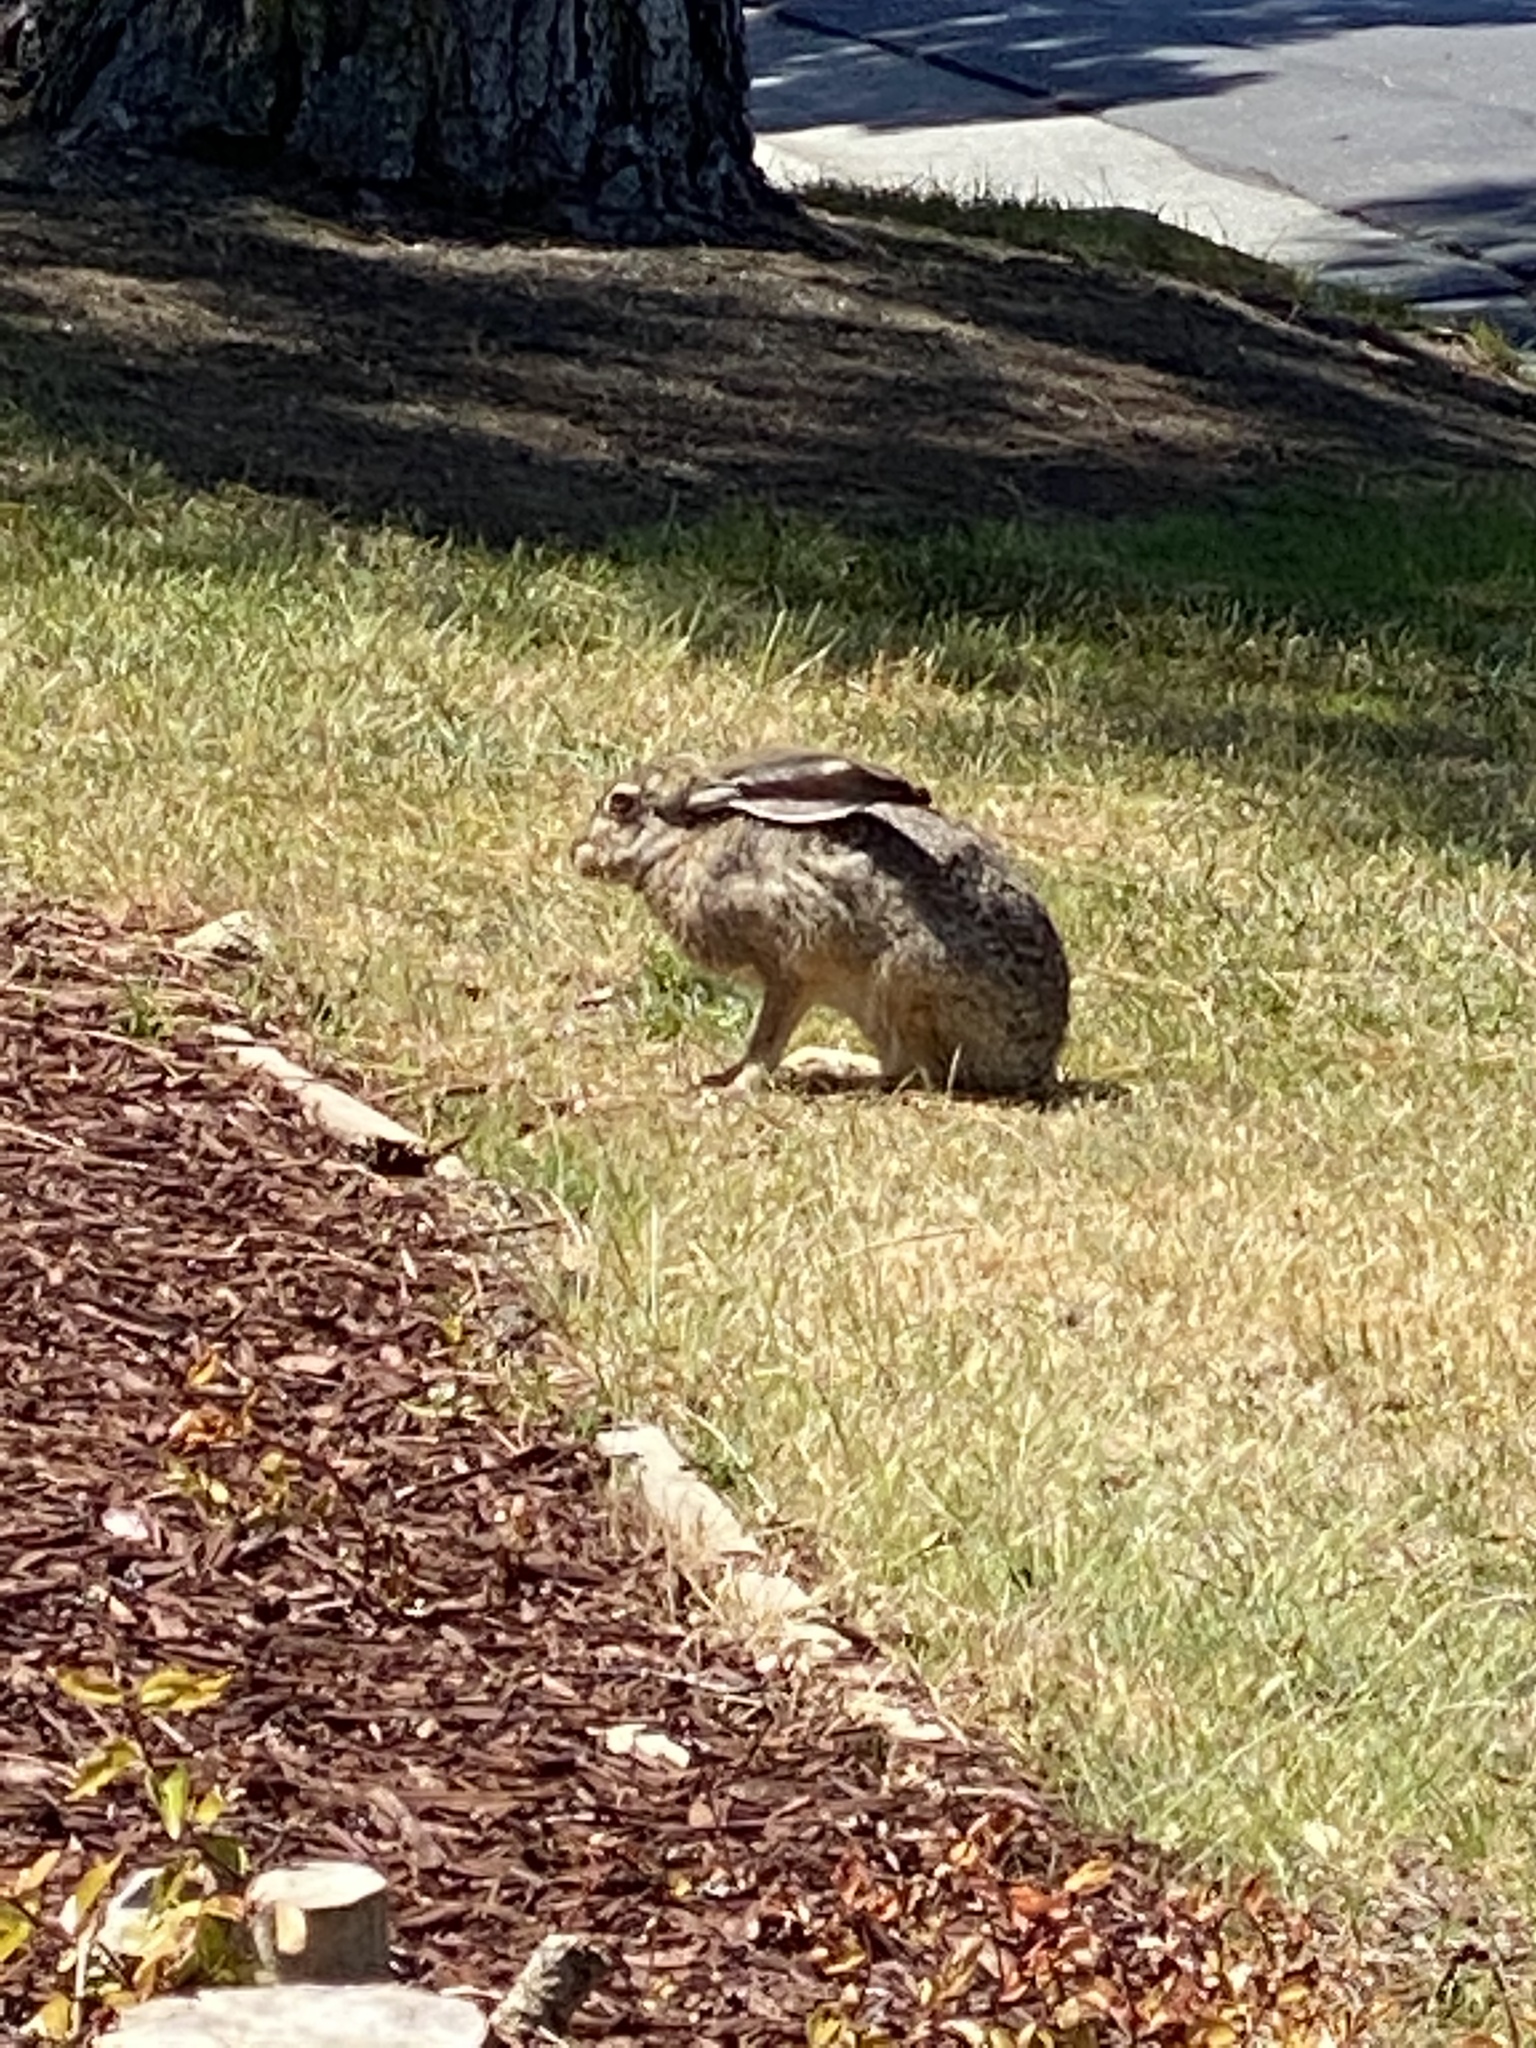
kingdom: Animalia
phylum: Chordata
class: Mammalia
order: Lagomorpha
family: Leporidae
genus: Lepus
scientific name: Lepus californicus
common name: Black-tailed jackrabbit
